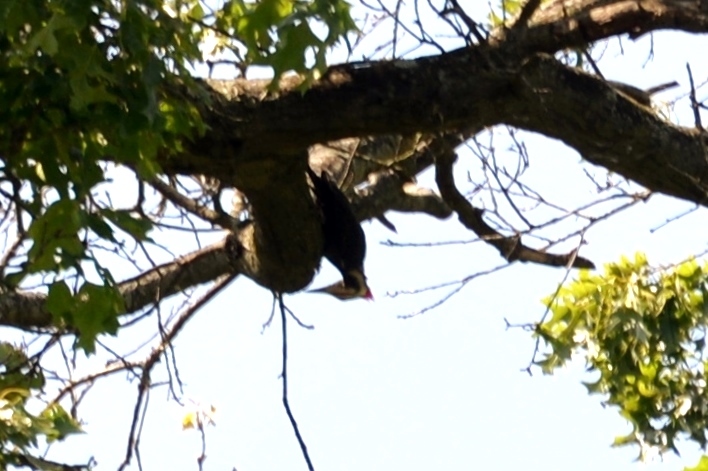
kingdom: Animalia
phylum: Chordata
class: Aves
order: Piciformes
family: Picidae
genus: Dryocopus
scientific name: Dryocopus pileatus
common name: Pileated woodpecker
